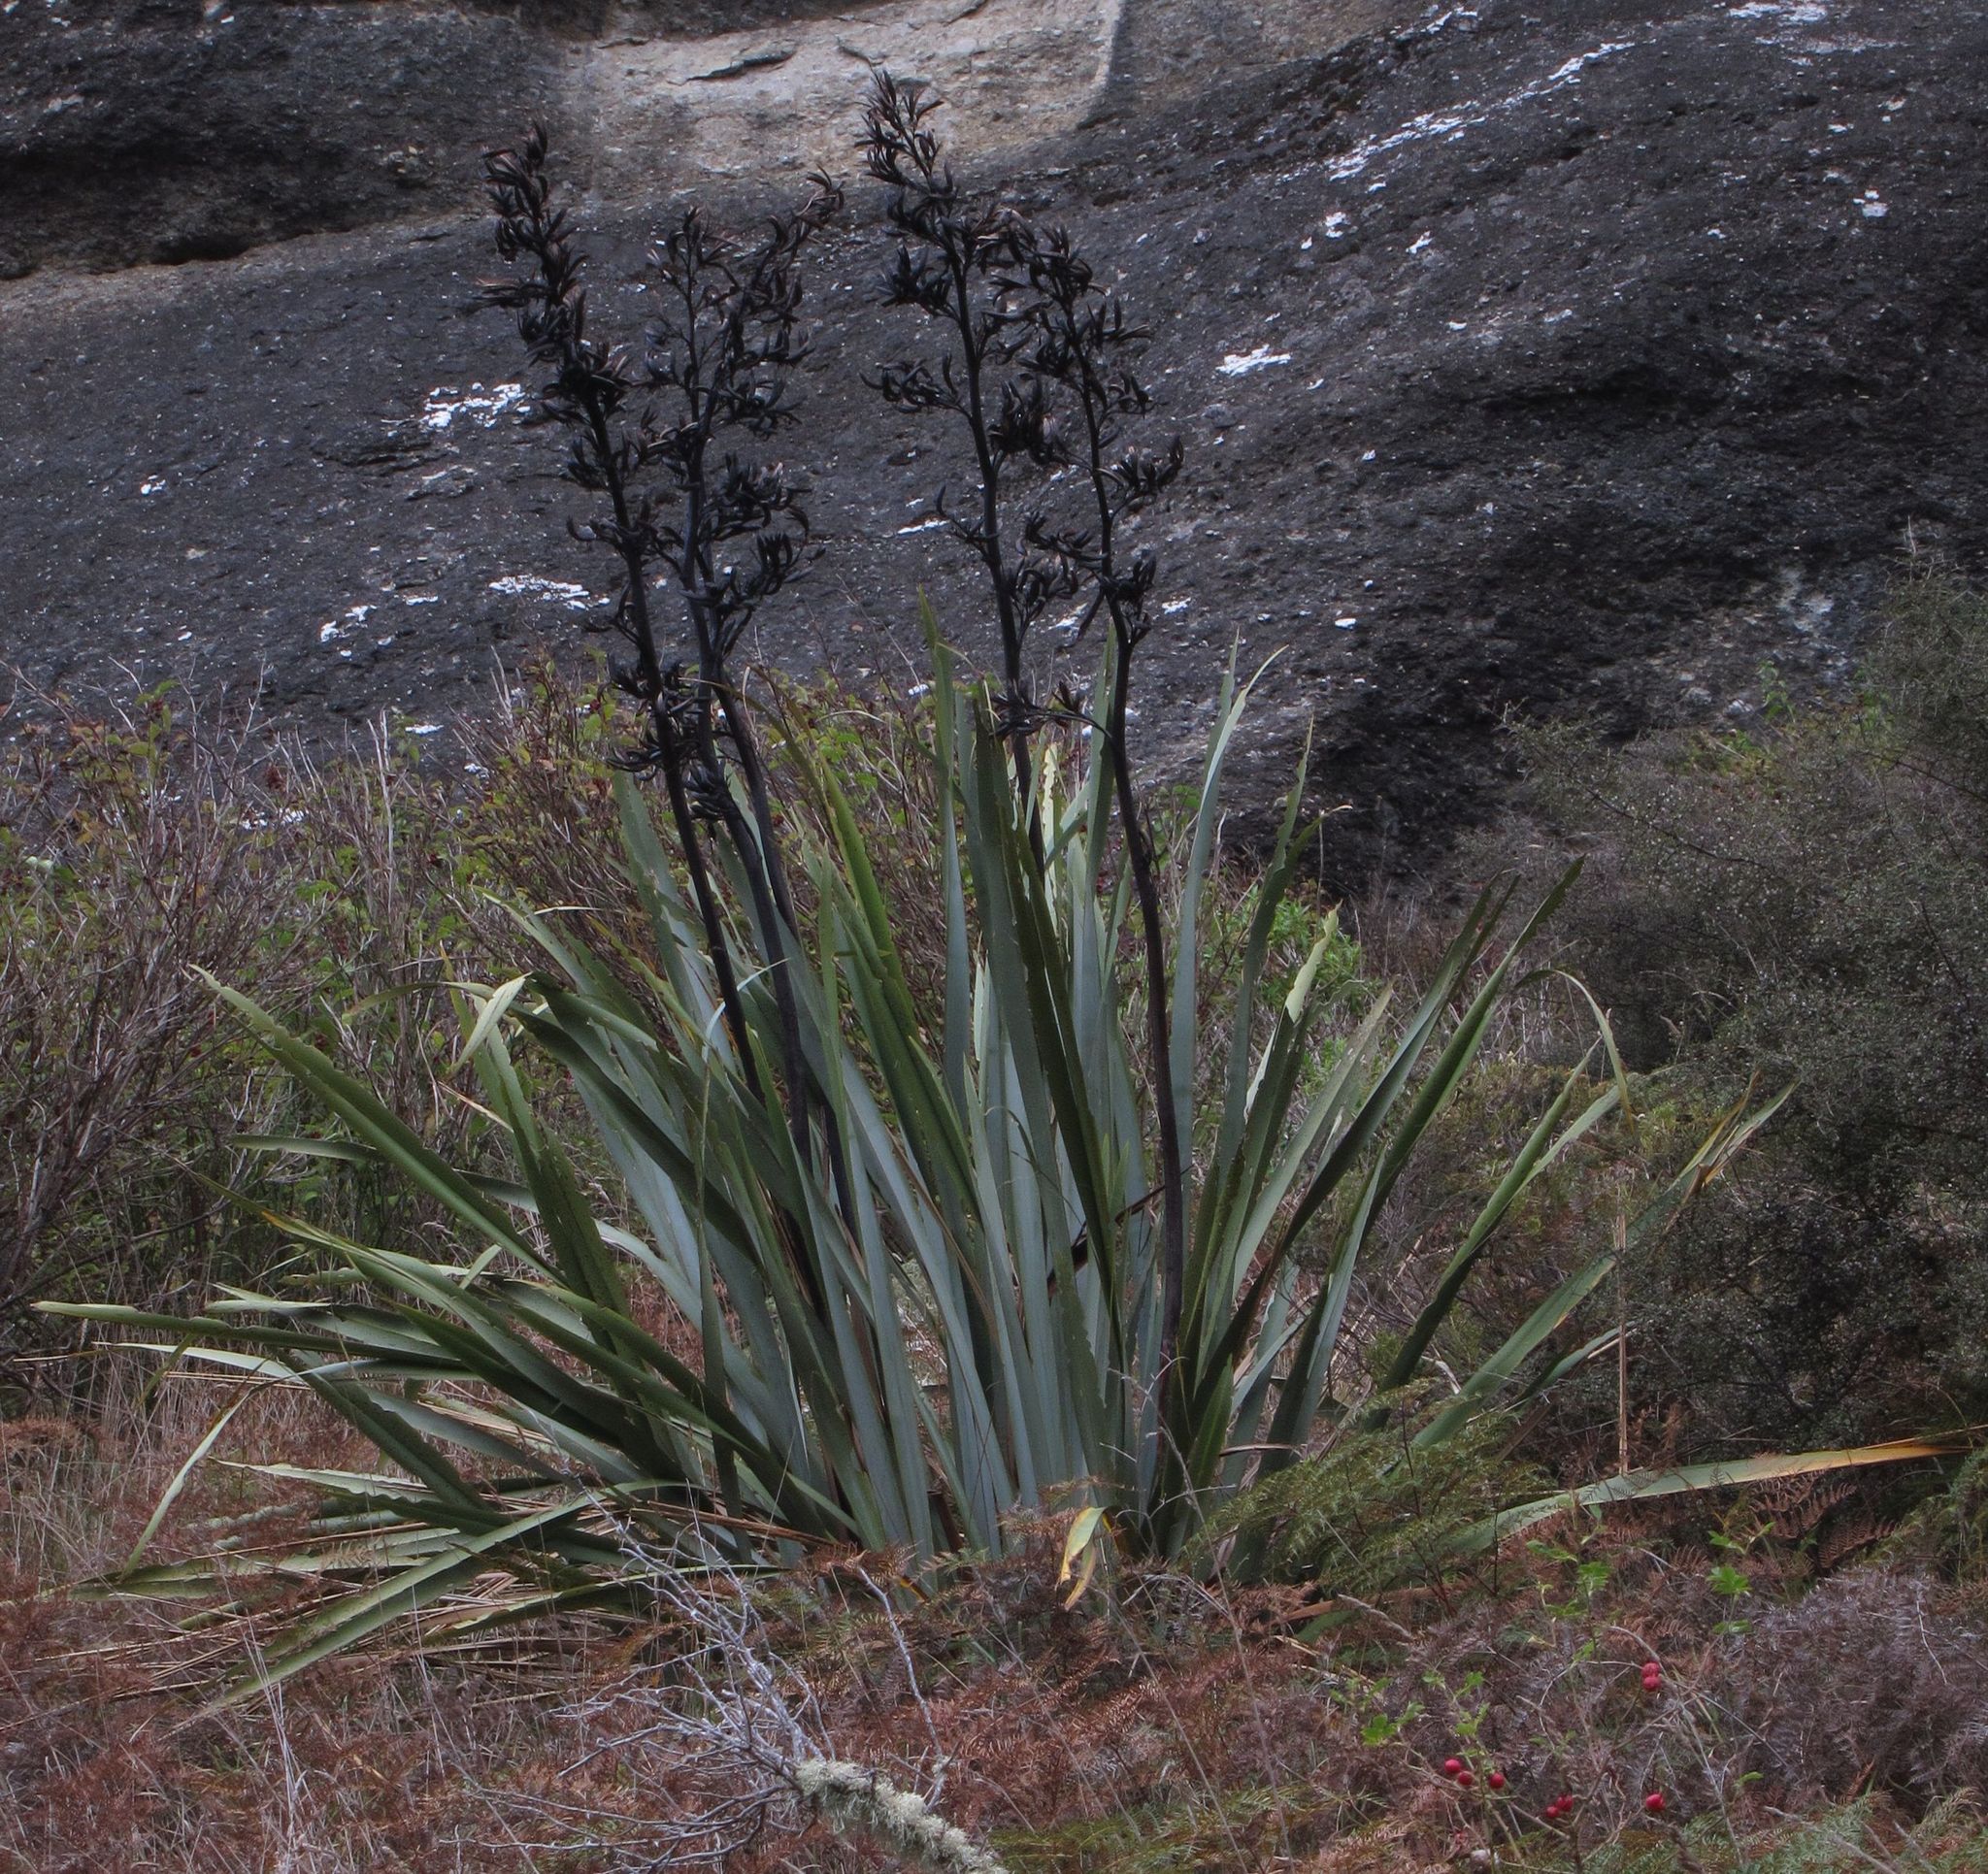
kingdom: Plantae
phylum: Tracheophyta
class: Liliopsida
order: Asparagales
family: Asphodelaceae
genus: Phormium
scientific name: Phormium tenax
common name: New zealand flax
